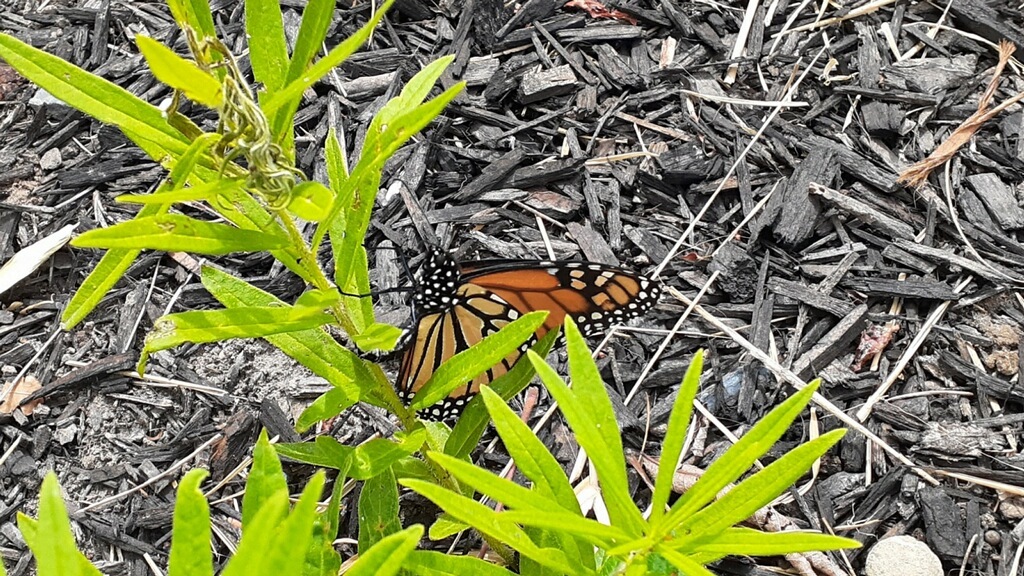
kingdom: Animalia
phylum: Arthropoda
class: Insecta
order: Lepidoptera
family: Nymphalidae
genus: Danaus
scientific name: Danaus plexippus
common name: Monarch
